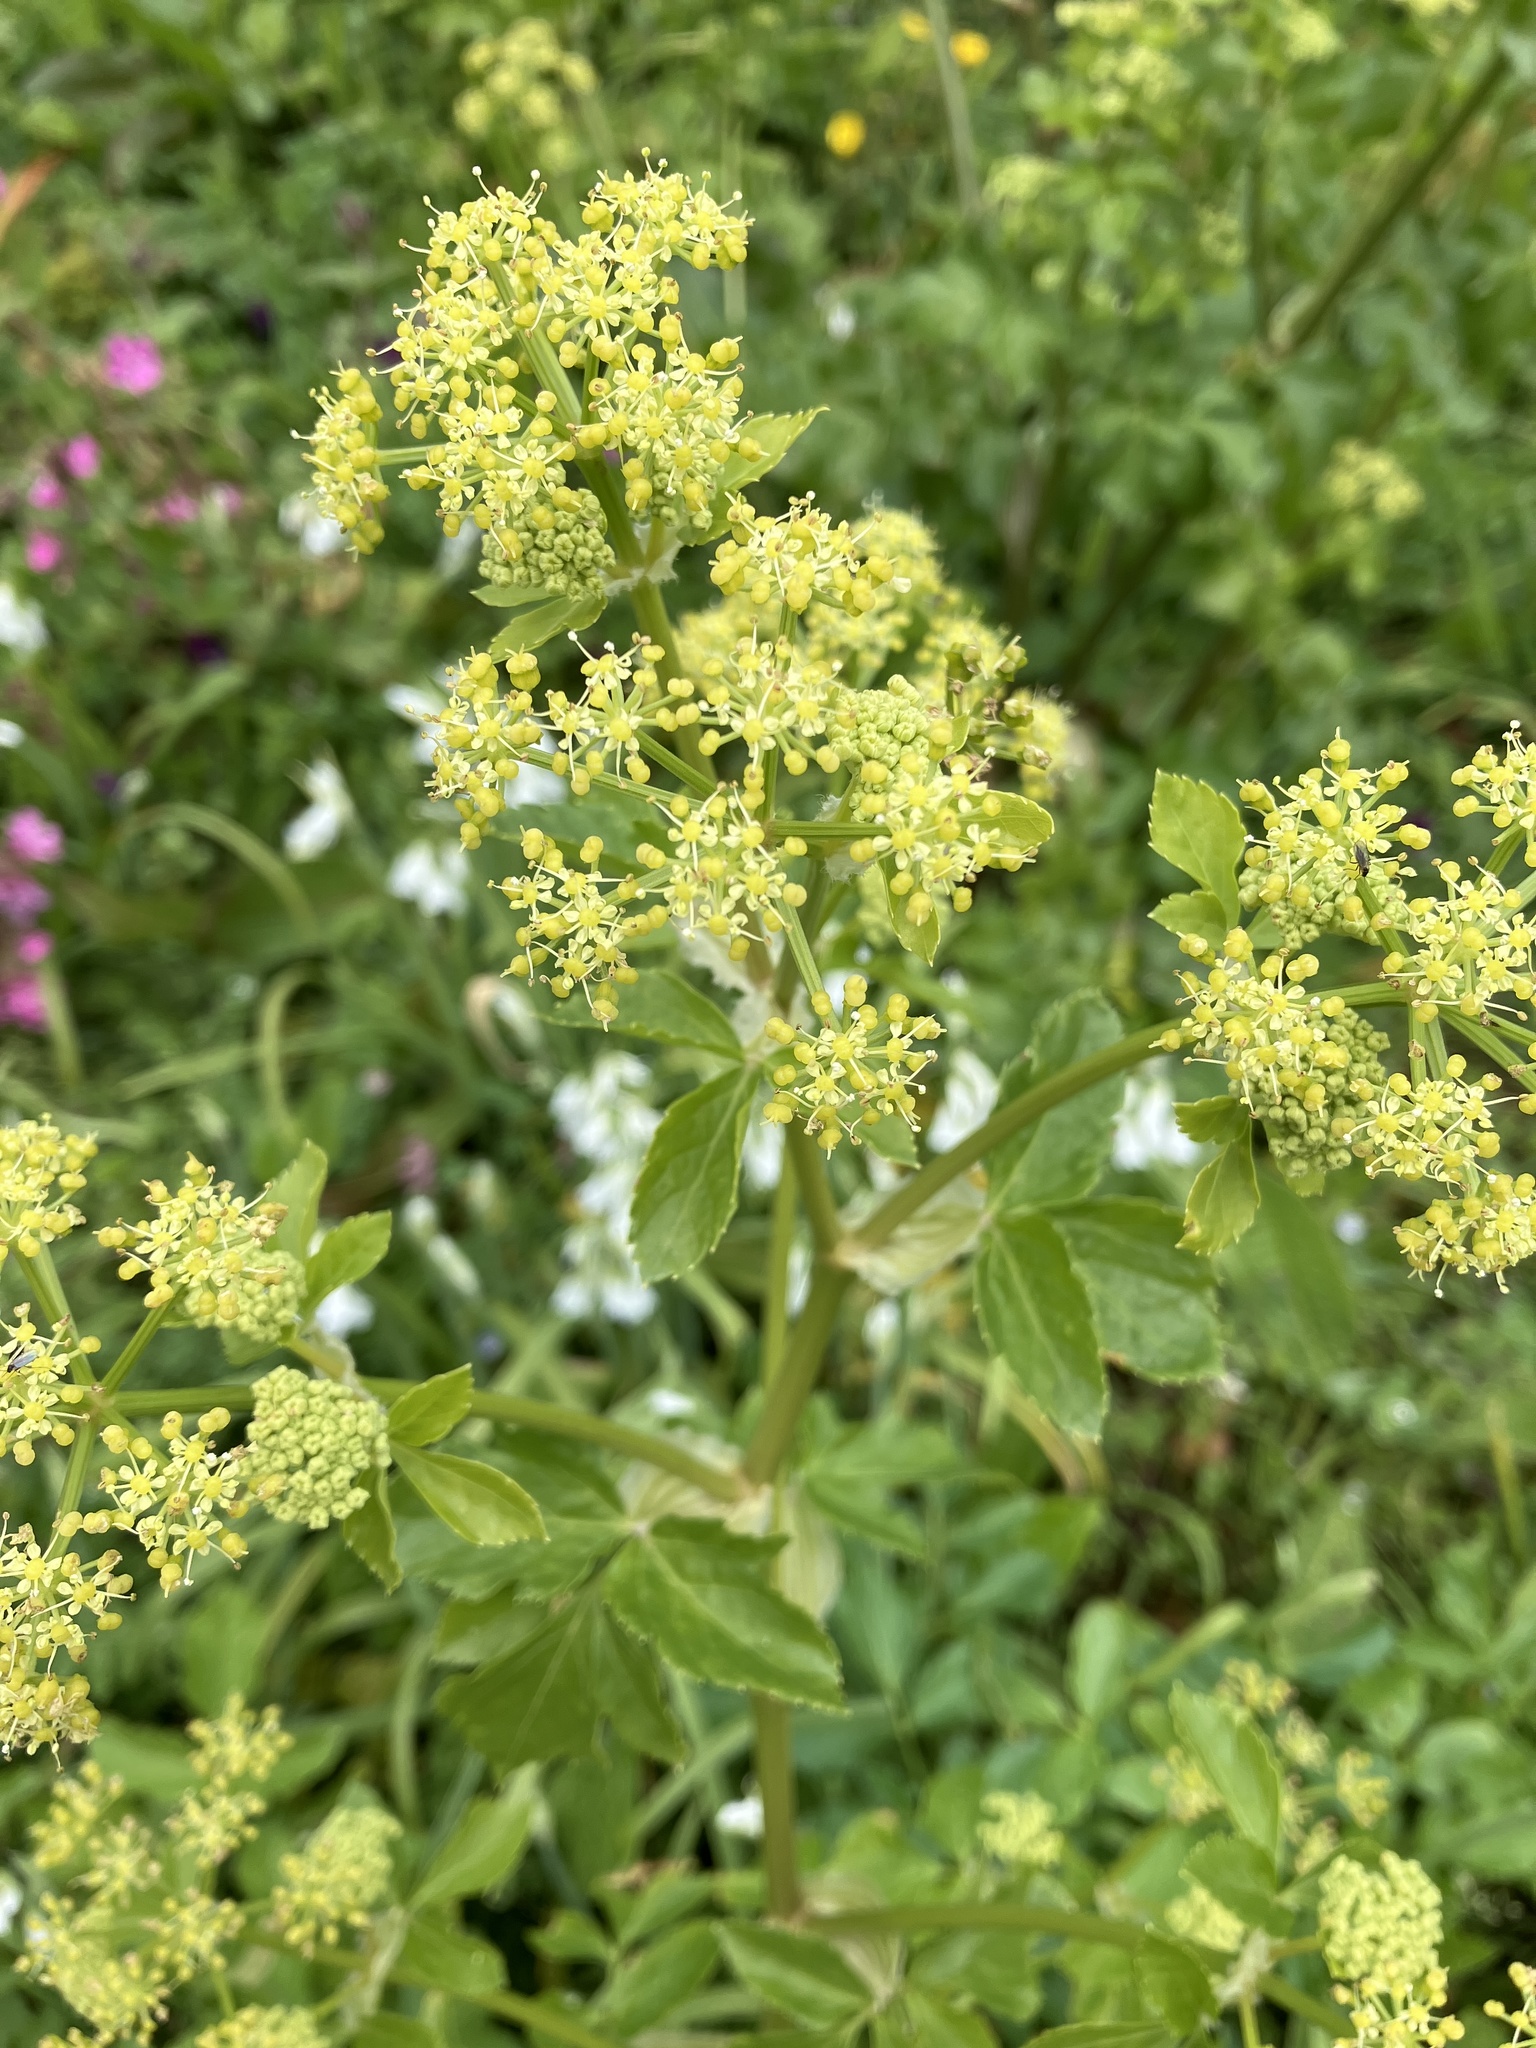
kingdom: Plantae
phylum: Tracheophyta
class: Magnoliopsida
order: Apiales
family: Apiaceae
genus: Smyrnium
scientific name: Smyrnium olusatrum
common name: Alexanders
